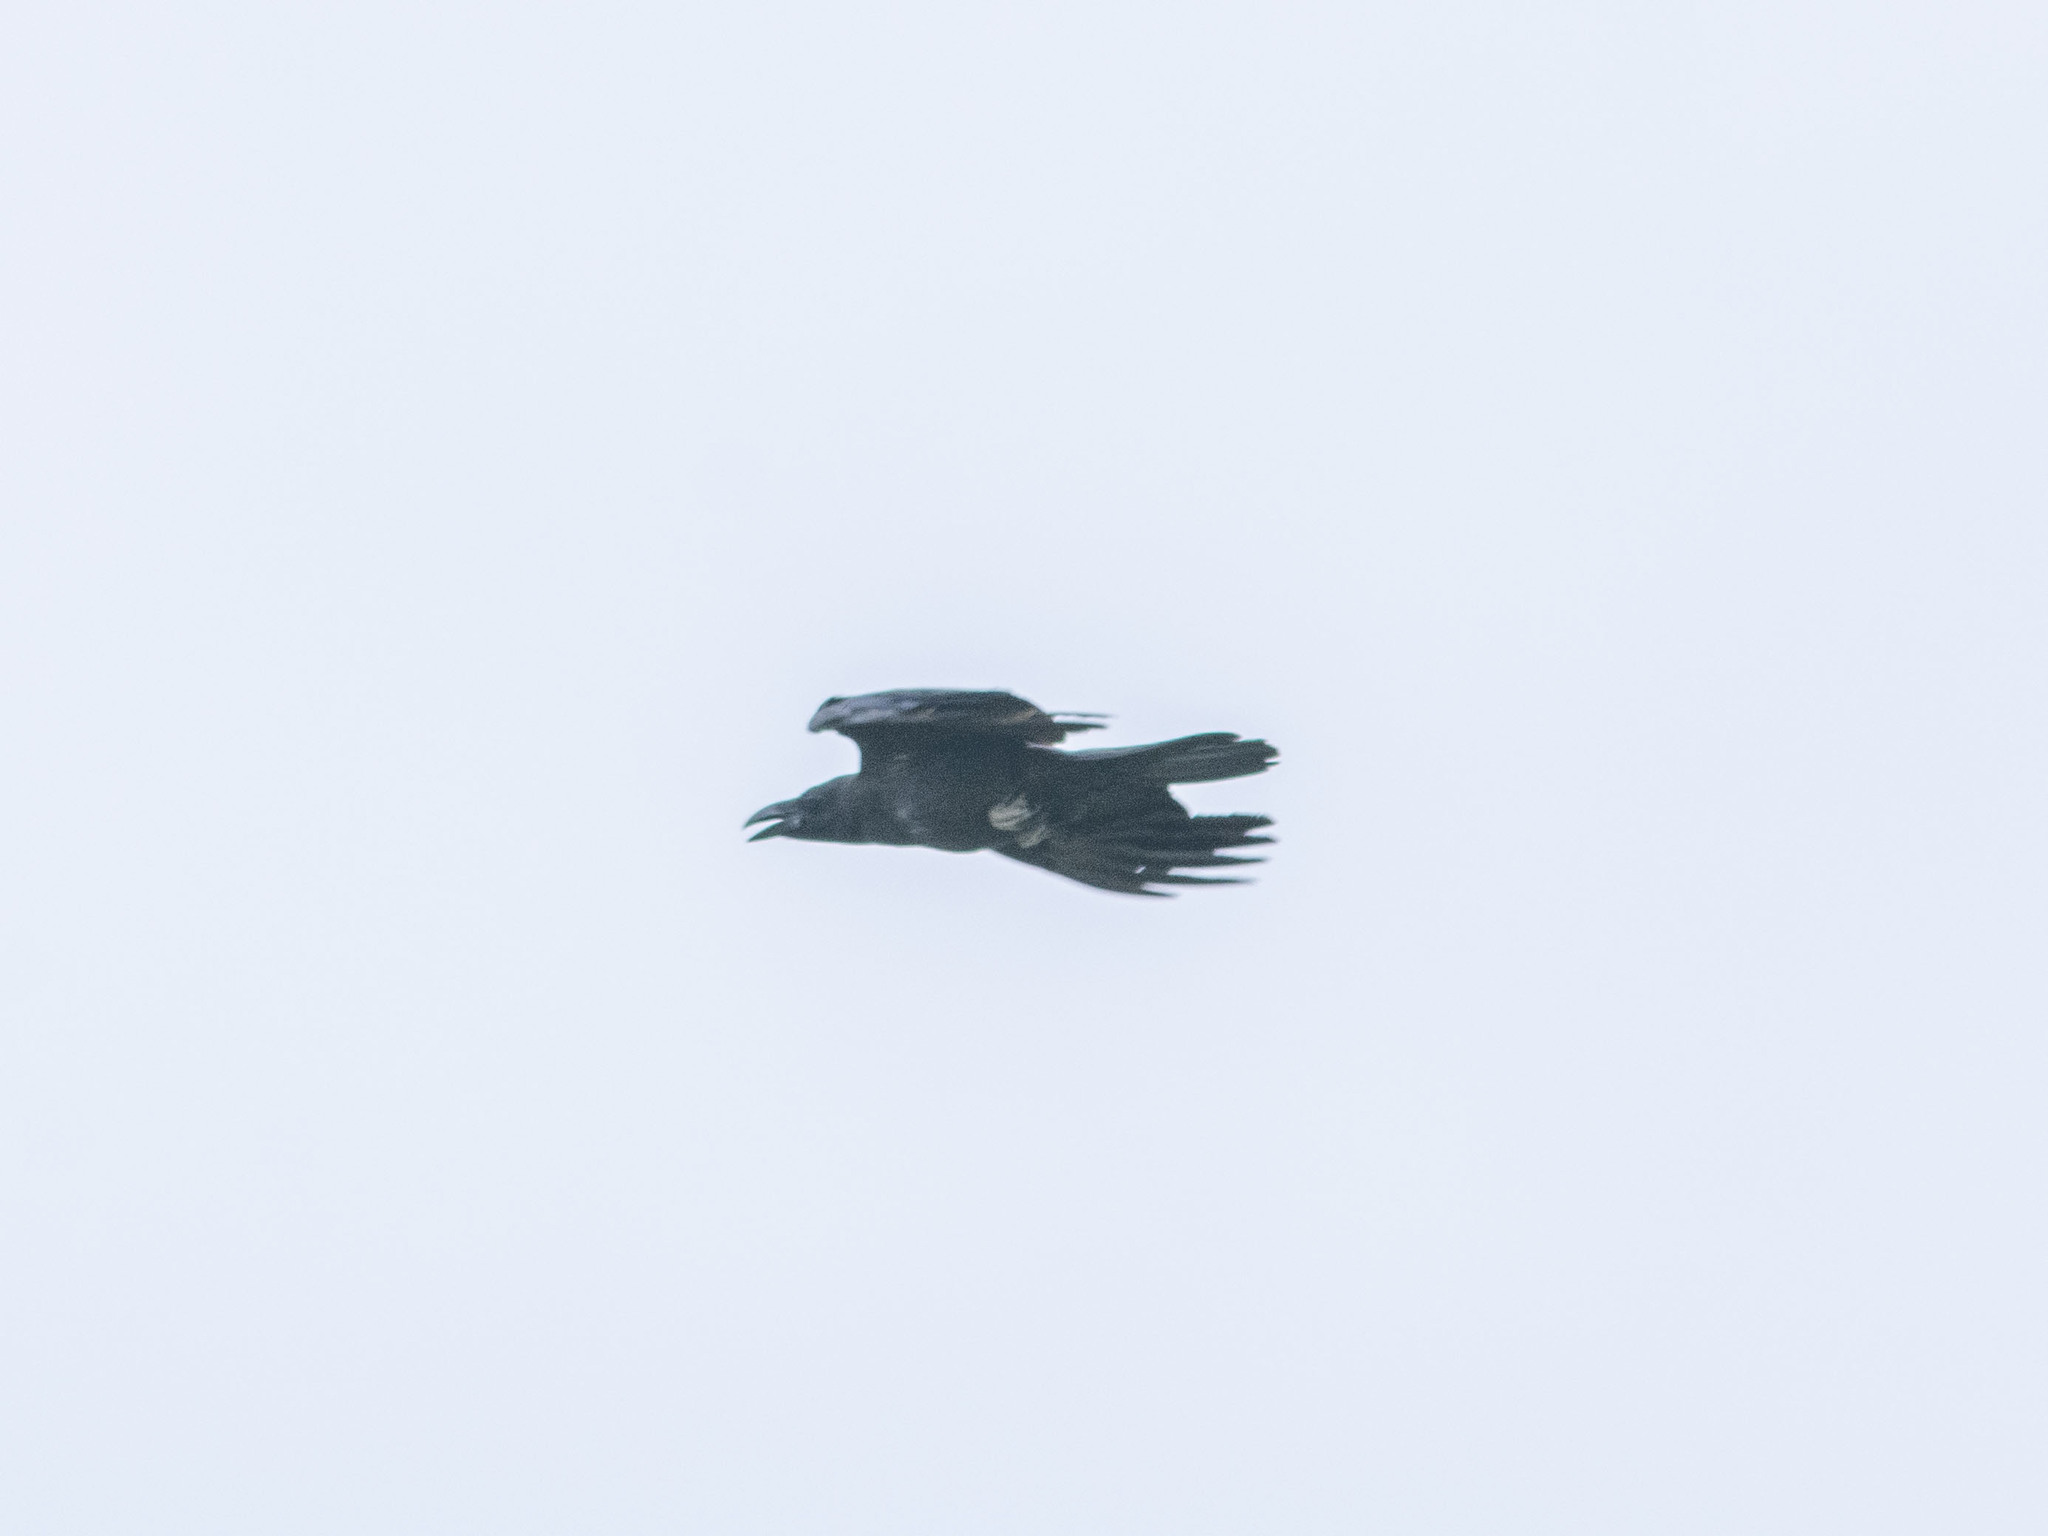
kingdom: Animalia
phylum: Chordata
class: Aves
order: Passeriformes
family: Corvidae
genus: Corvus
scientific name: Corvus macrorhynchos
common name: Large-billed crow
